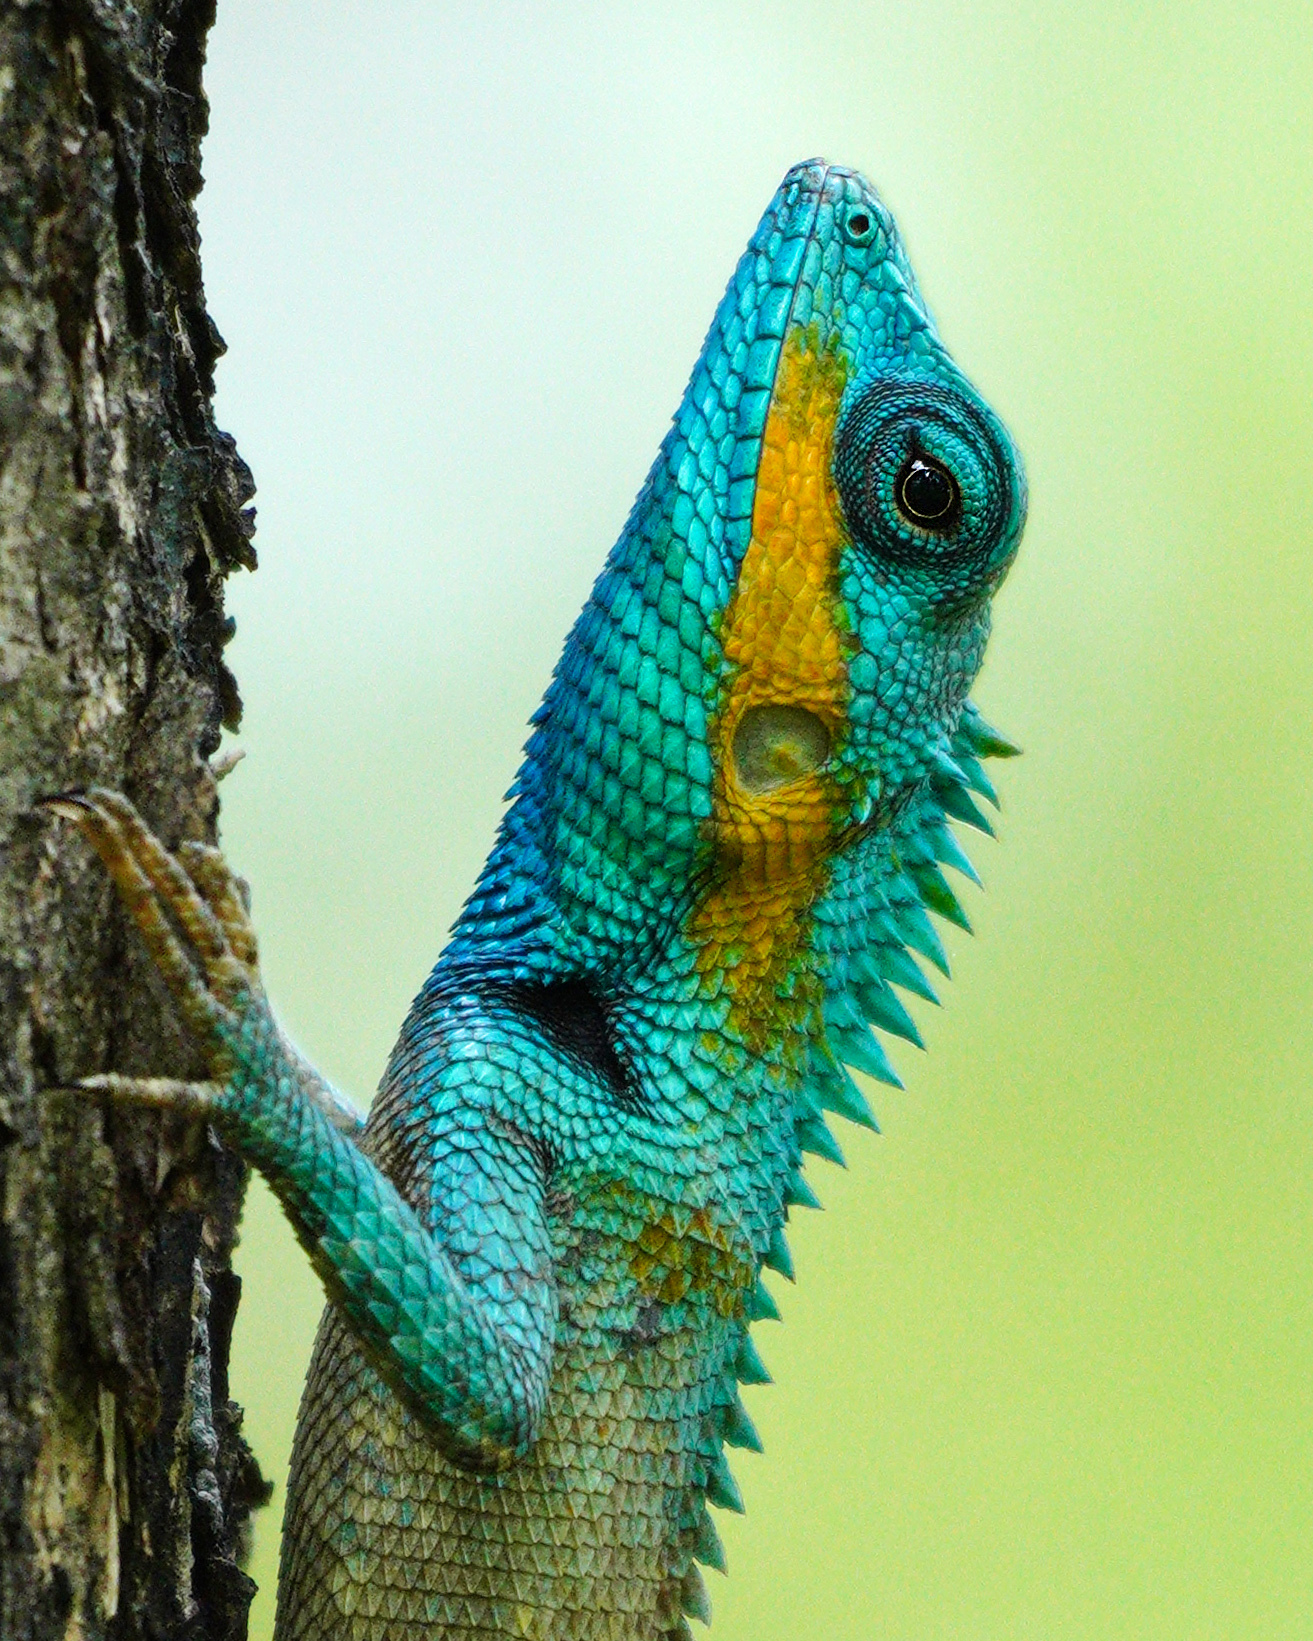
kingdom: Animalia
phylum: Chordata
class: Squamata
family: Agamidae
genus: Calotes
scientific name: Calotes bachae
